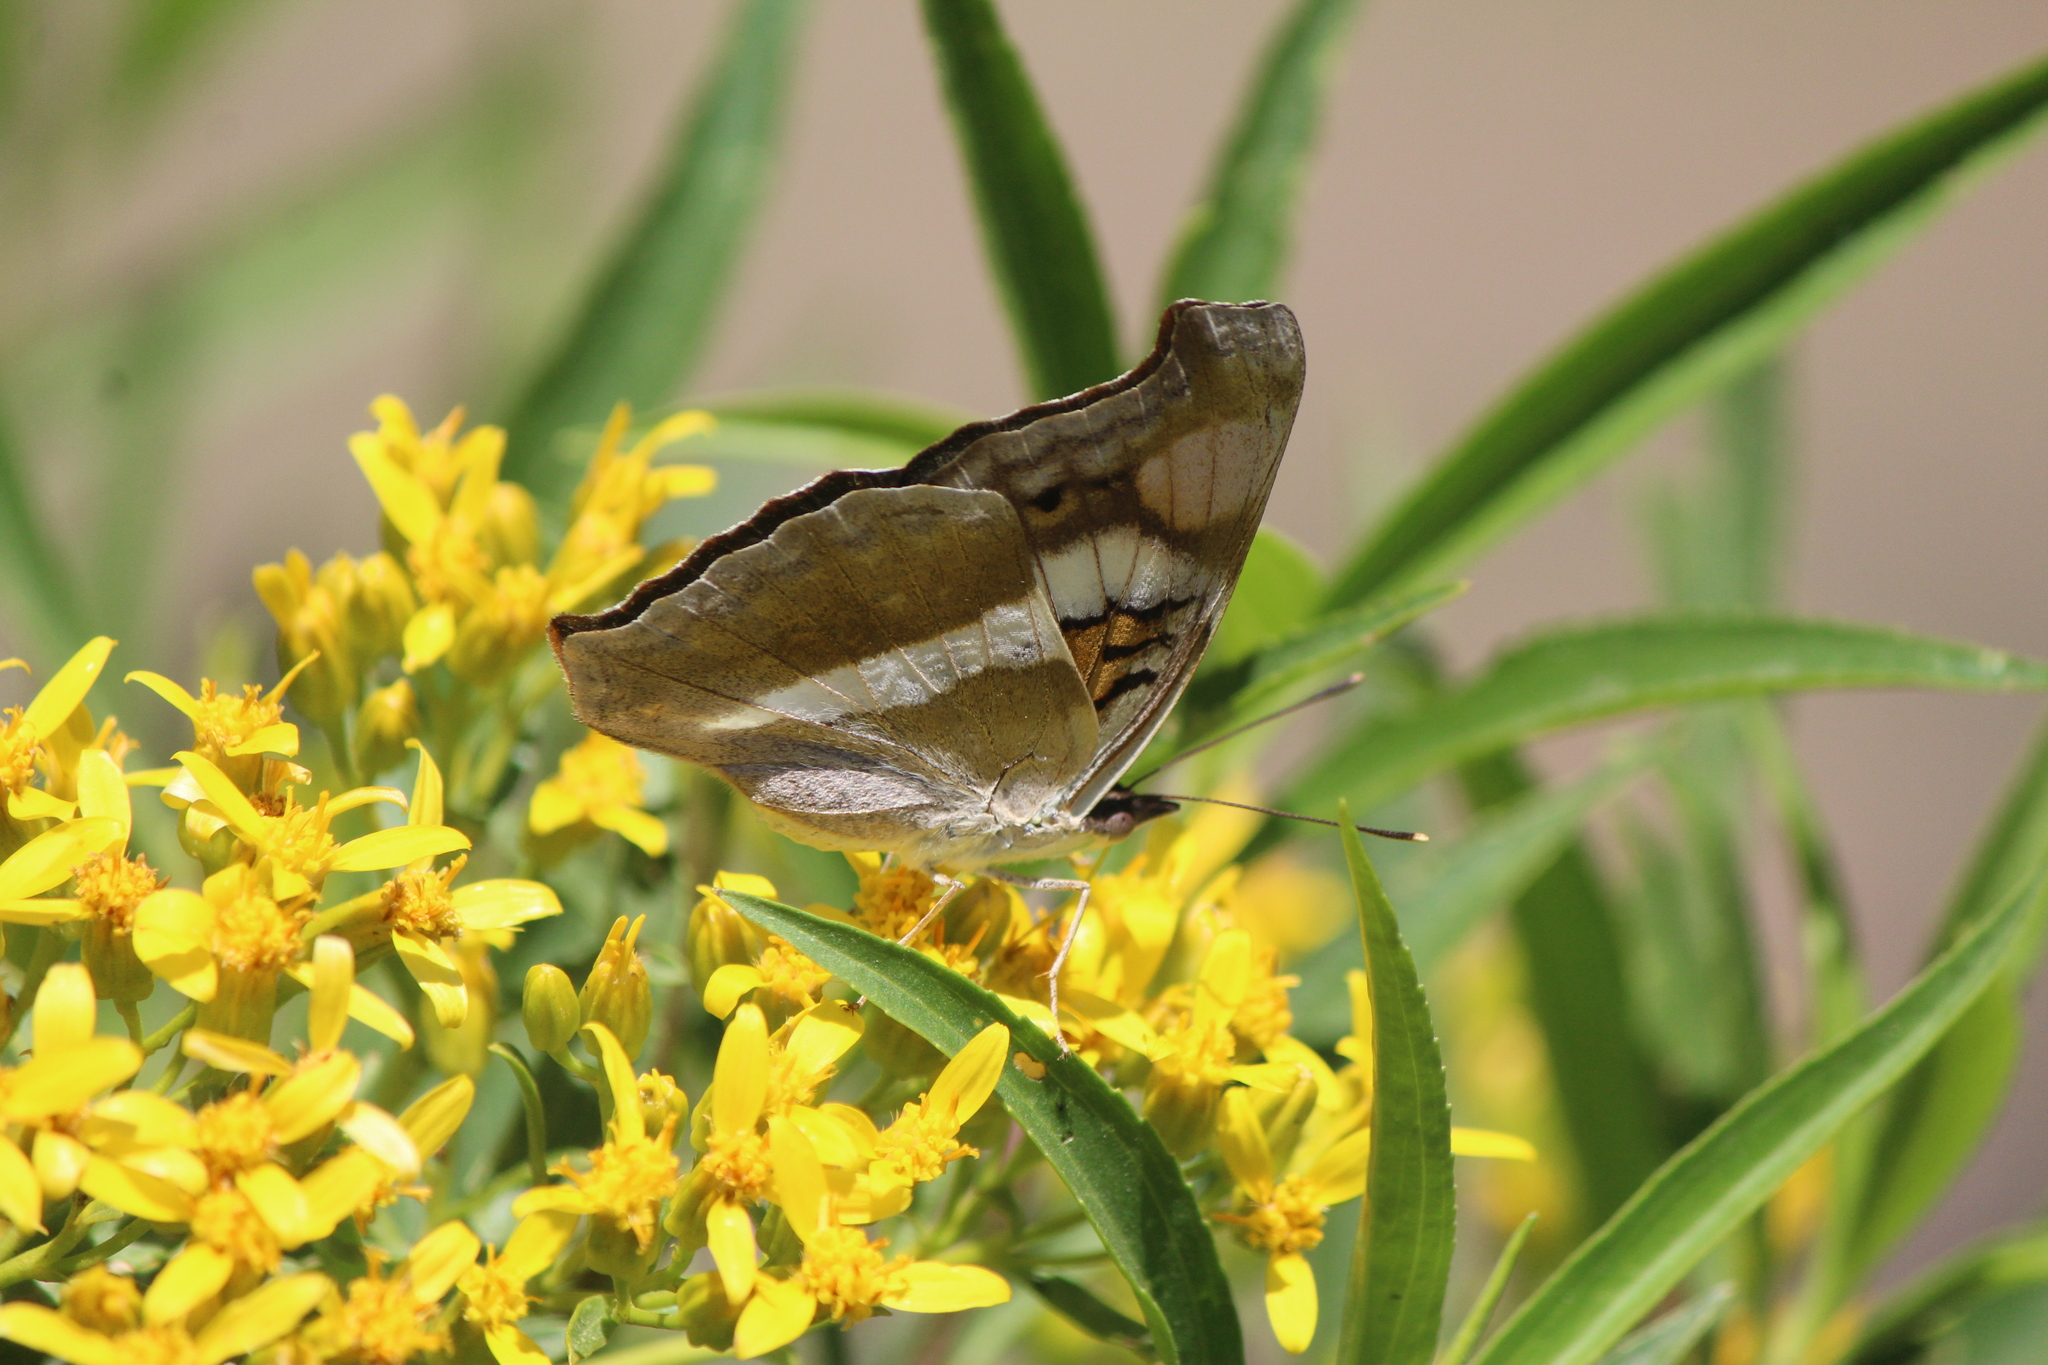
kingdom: Animalia
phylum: Arthropoda
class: Insecta
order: Lepidoptera
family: Nymphalidae
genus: Doxocopa
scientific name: Doxocopa laure
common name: Silver emperor
